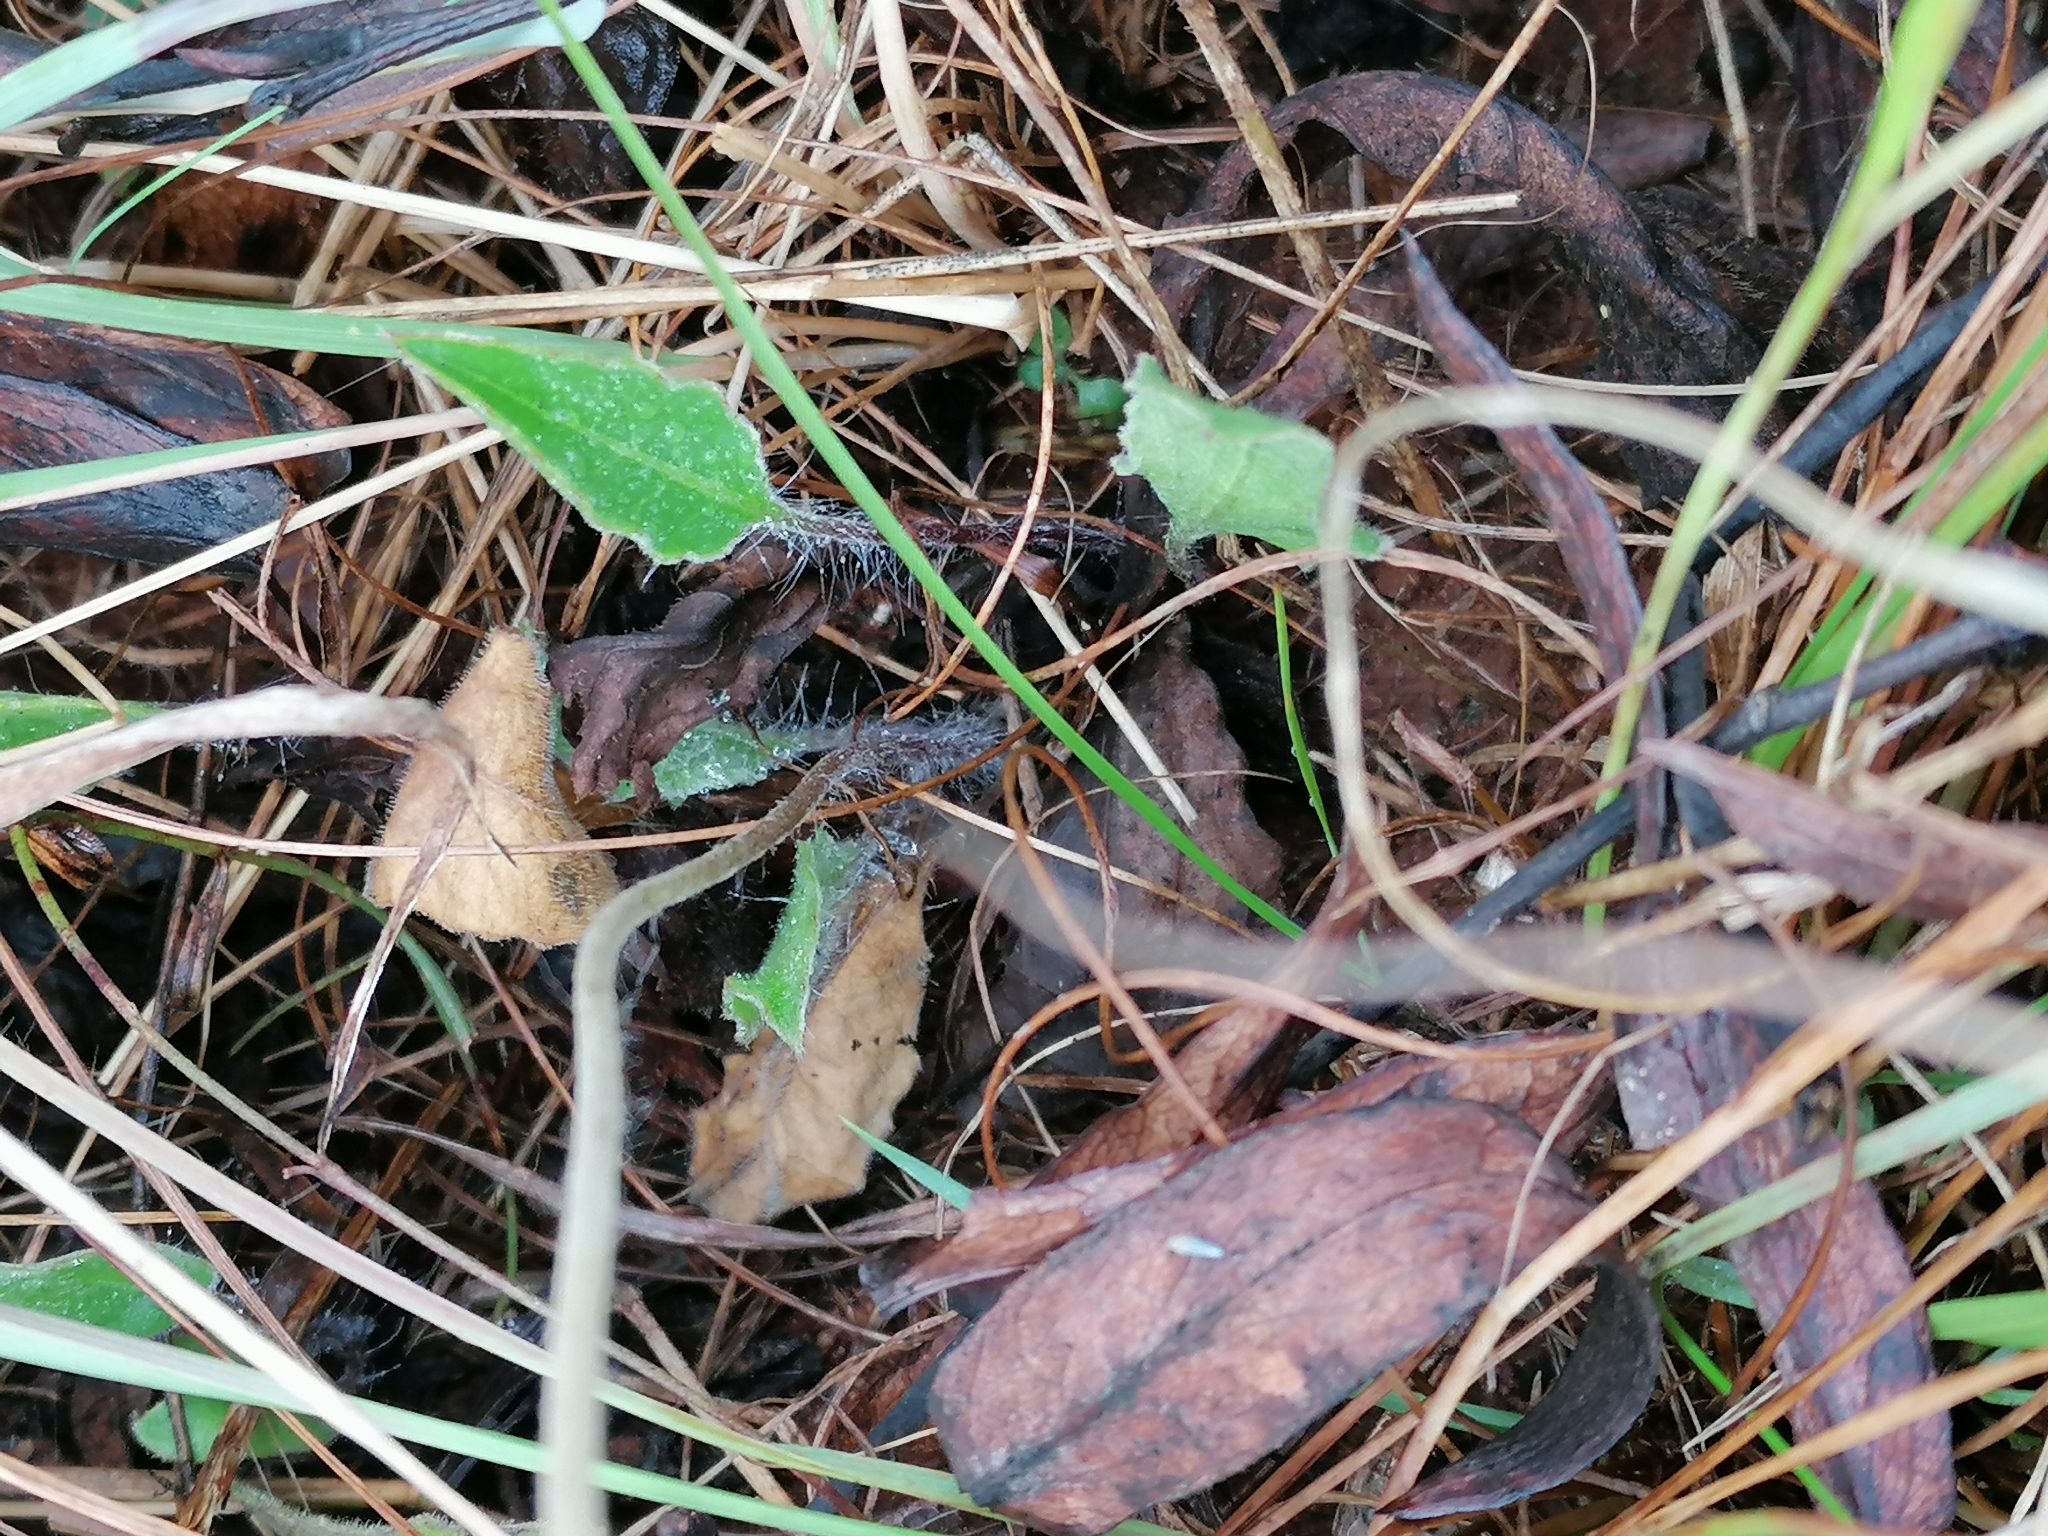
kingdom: Plantae
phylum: Tracheophyta
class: Magnoliopsida
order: Asterales
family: Asteraceae
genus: Gerbera
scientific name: Gerbera viridifolia
